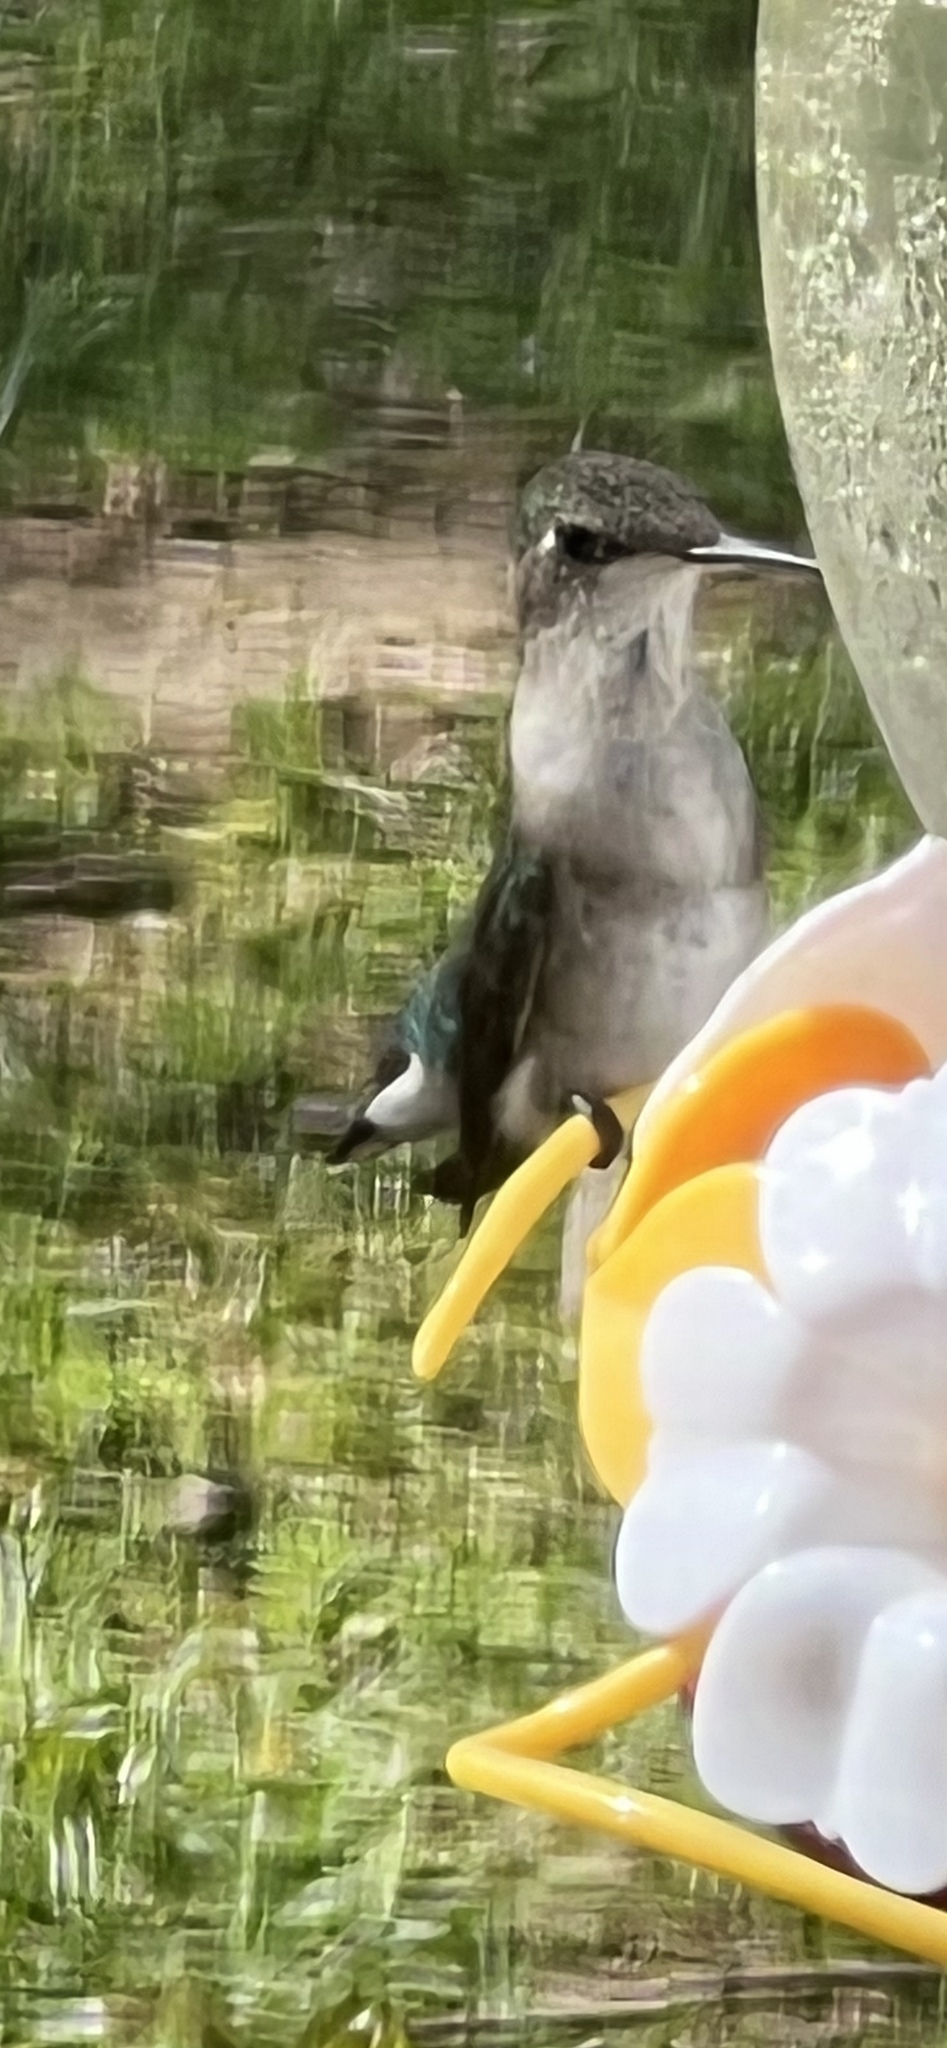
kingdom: Animalia
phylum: Chordata
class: Aves
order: Apodiformes
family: Trochilidae
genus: Archilochus
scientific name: Archilochus colubris
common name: Ruby-throated hummingbird
